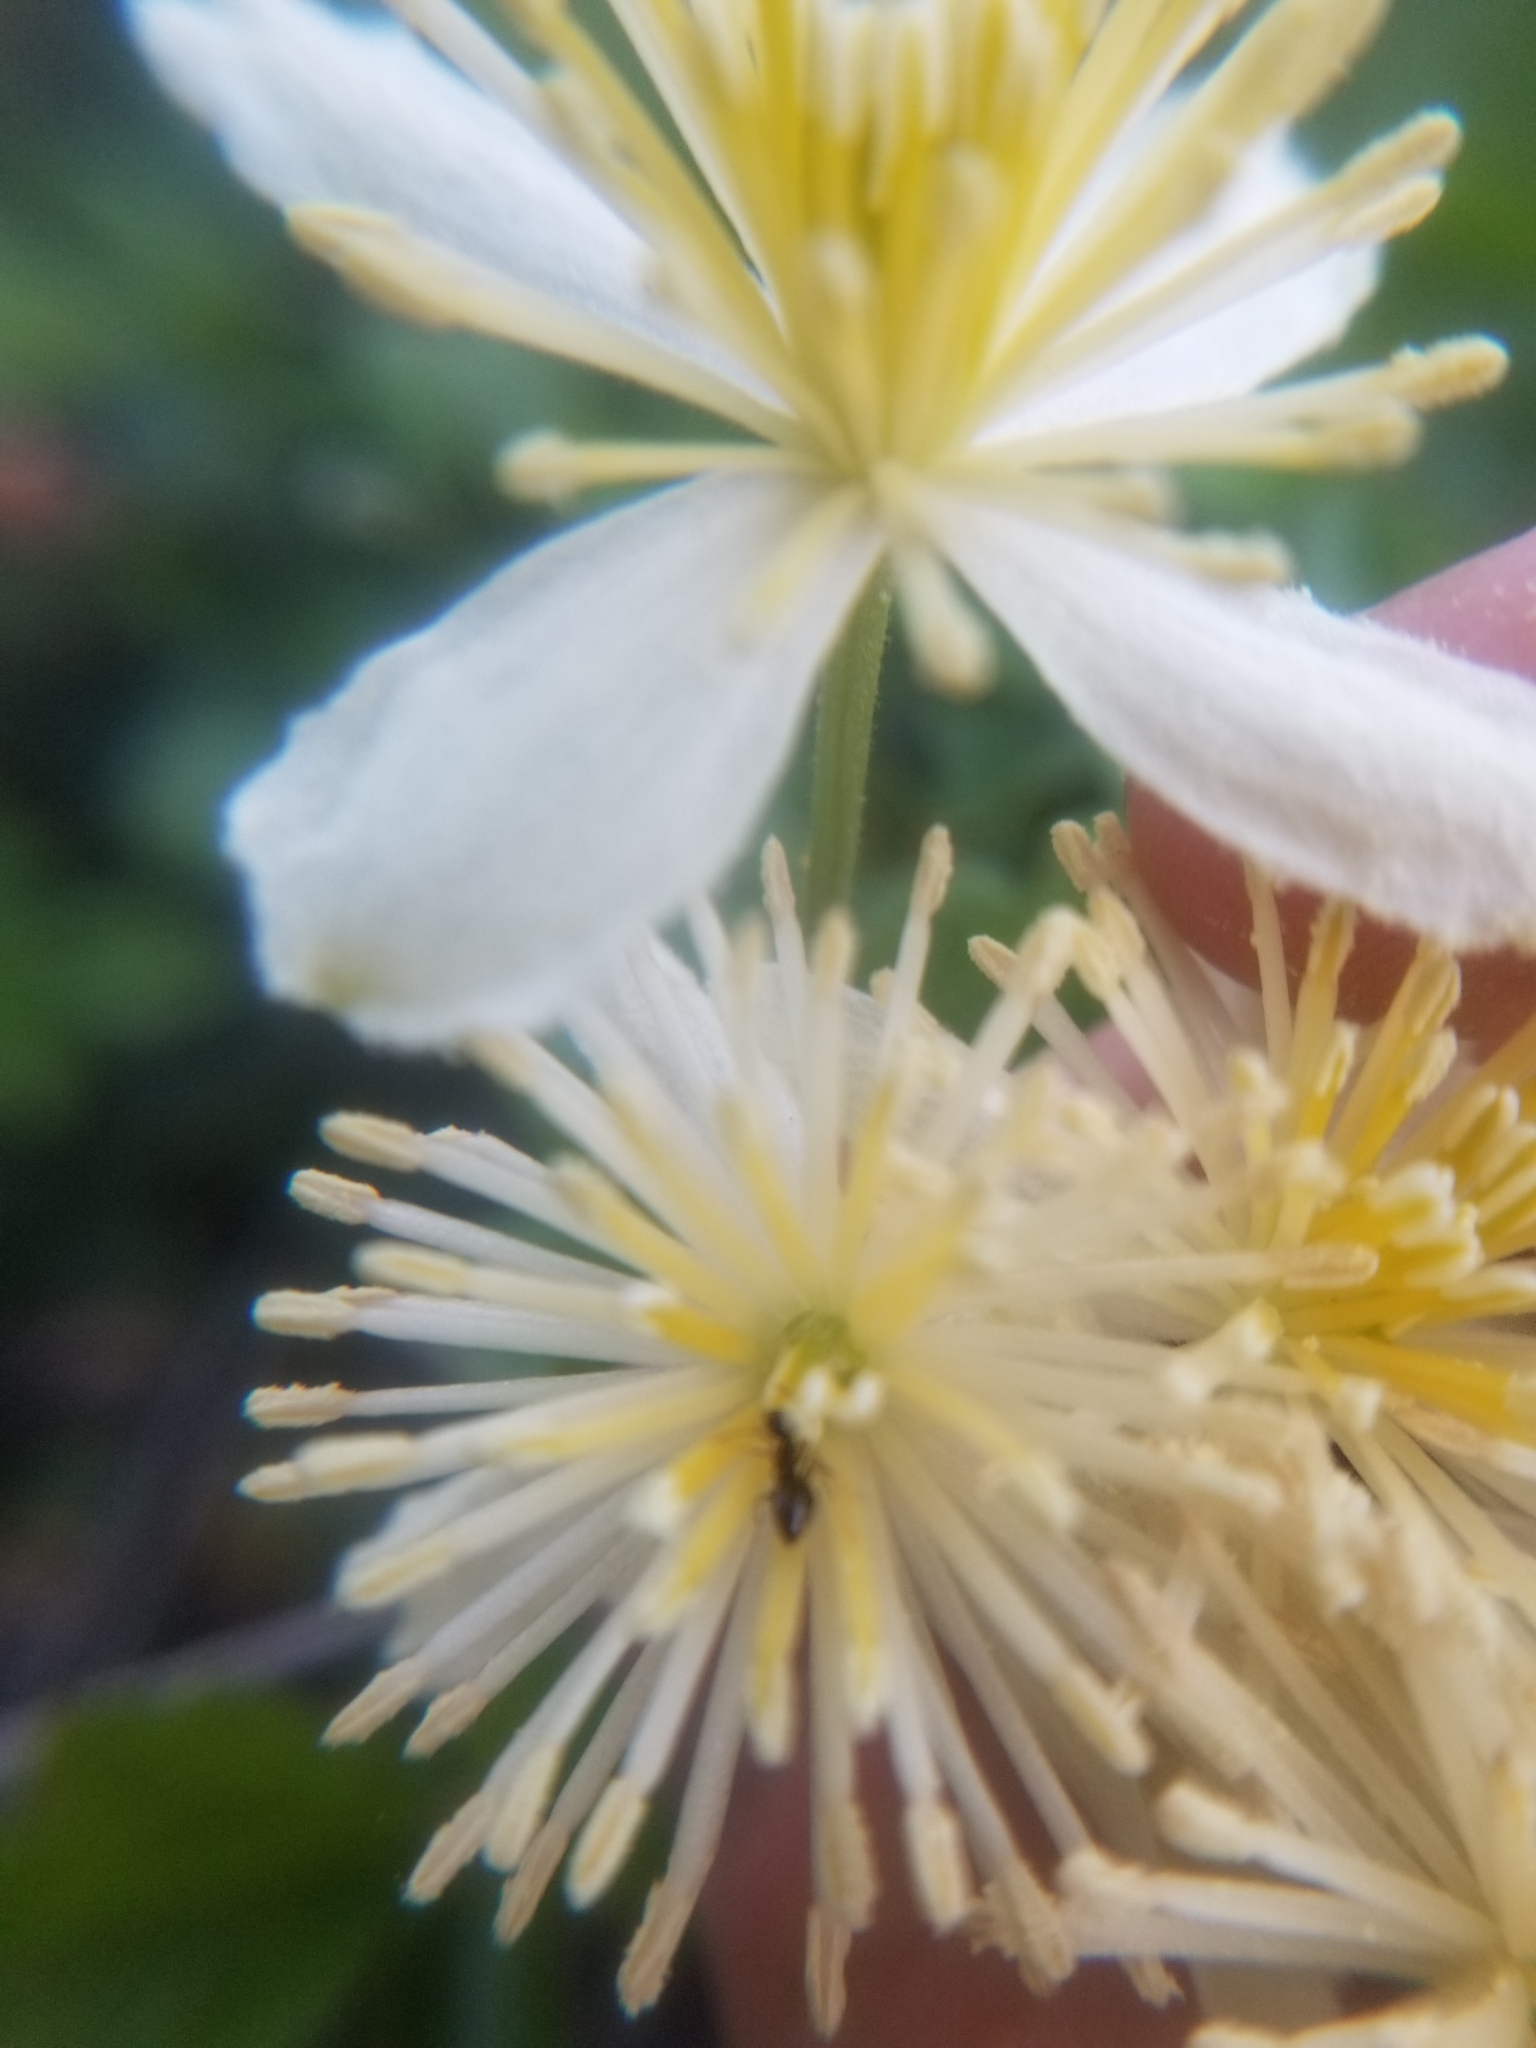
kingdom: Animalia
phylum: Arthropoda
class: Insecta
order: Hymenoptera
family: Formicidae
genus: Prenolepis
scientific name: Prenolepis imparis
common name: Small honey ant
